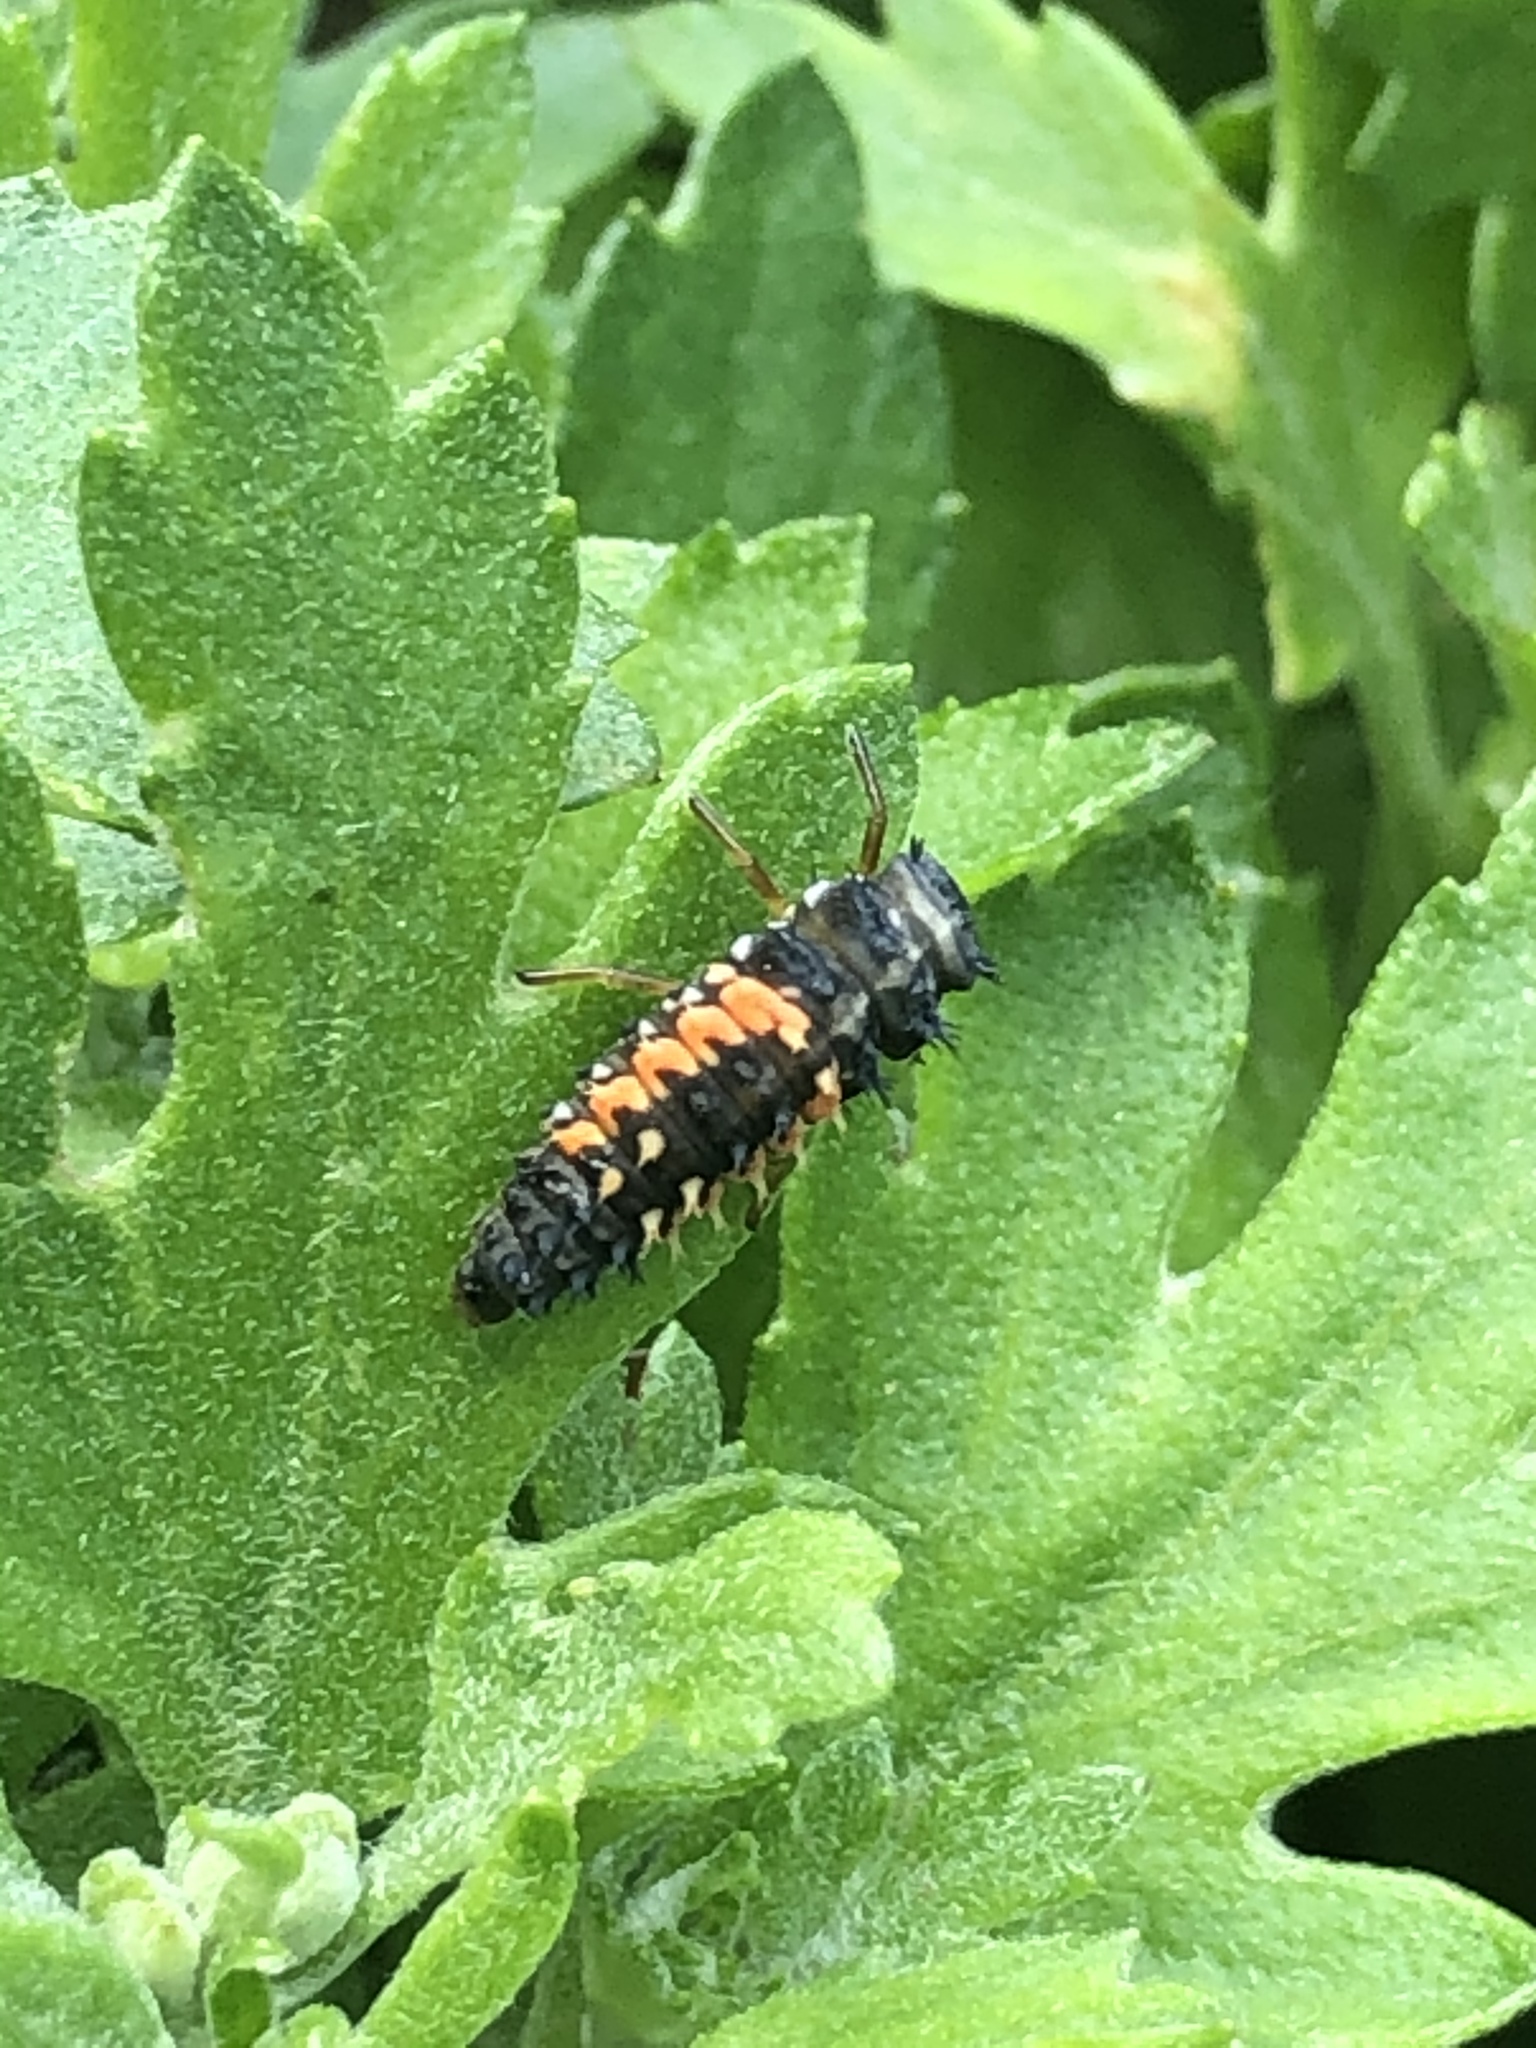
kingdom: Animalia
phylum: Arthropoda
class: Insecta
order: Coleoptera
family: Coccinellidae
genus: Harmonia
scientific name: Harmonia axyridis
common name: Harlequin ladybird
